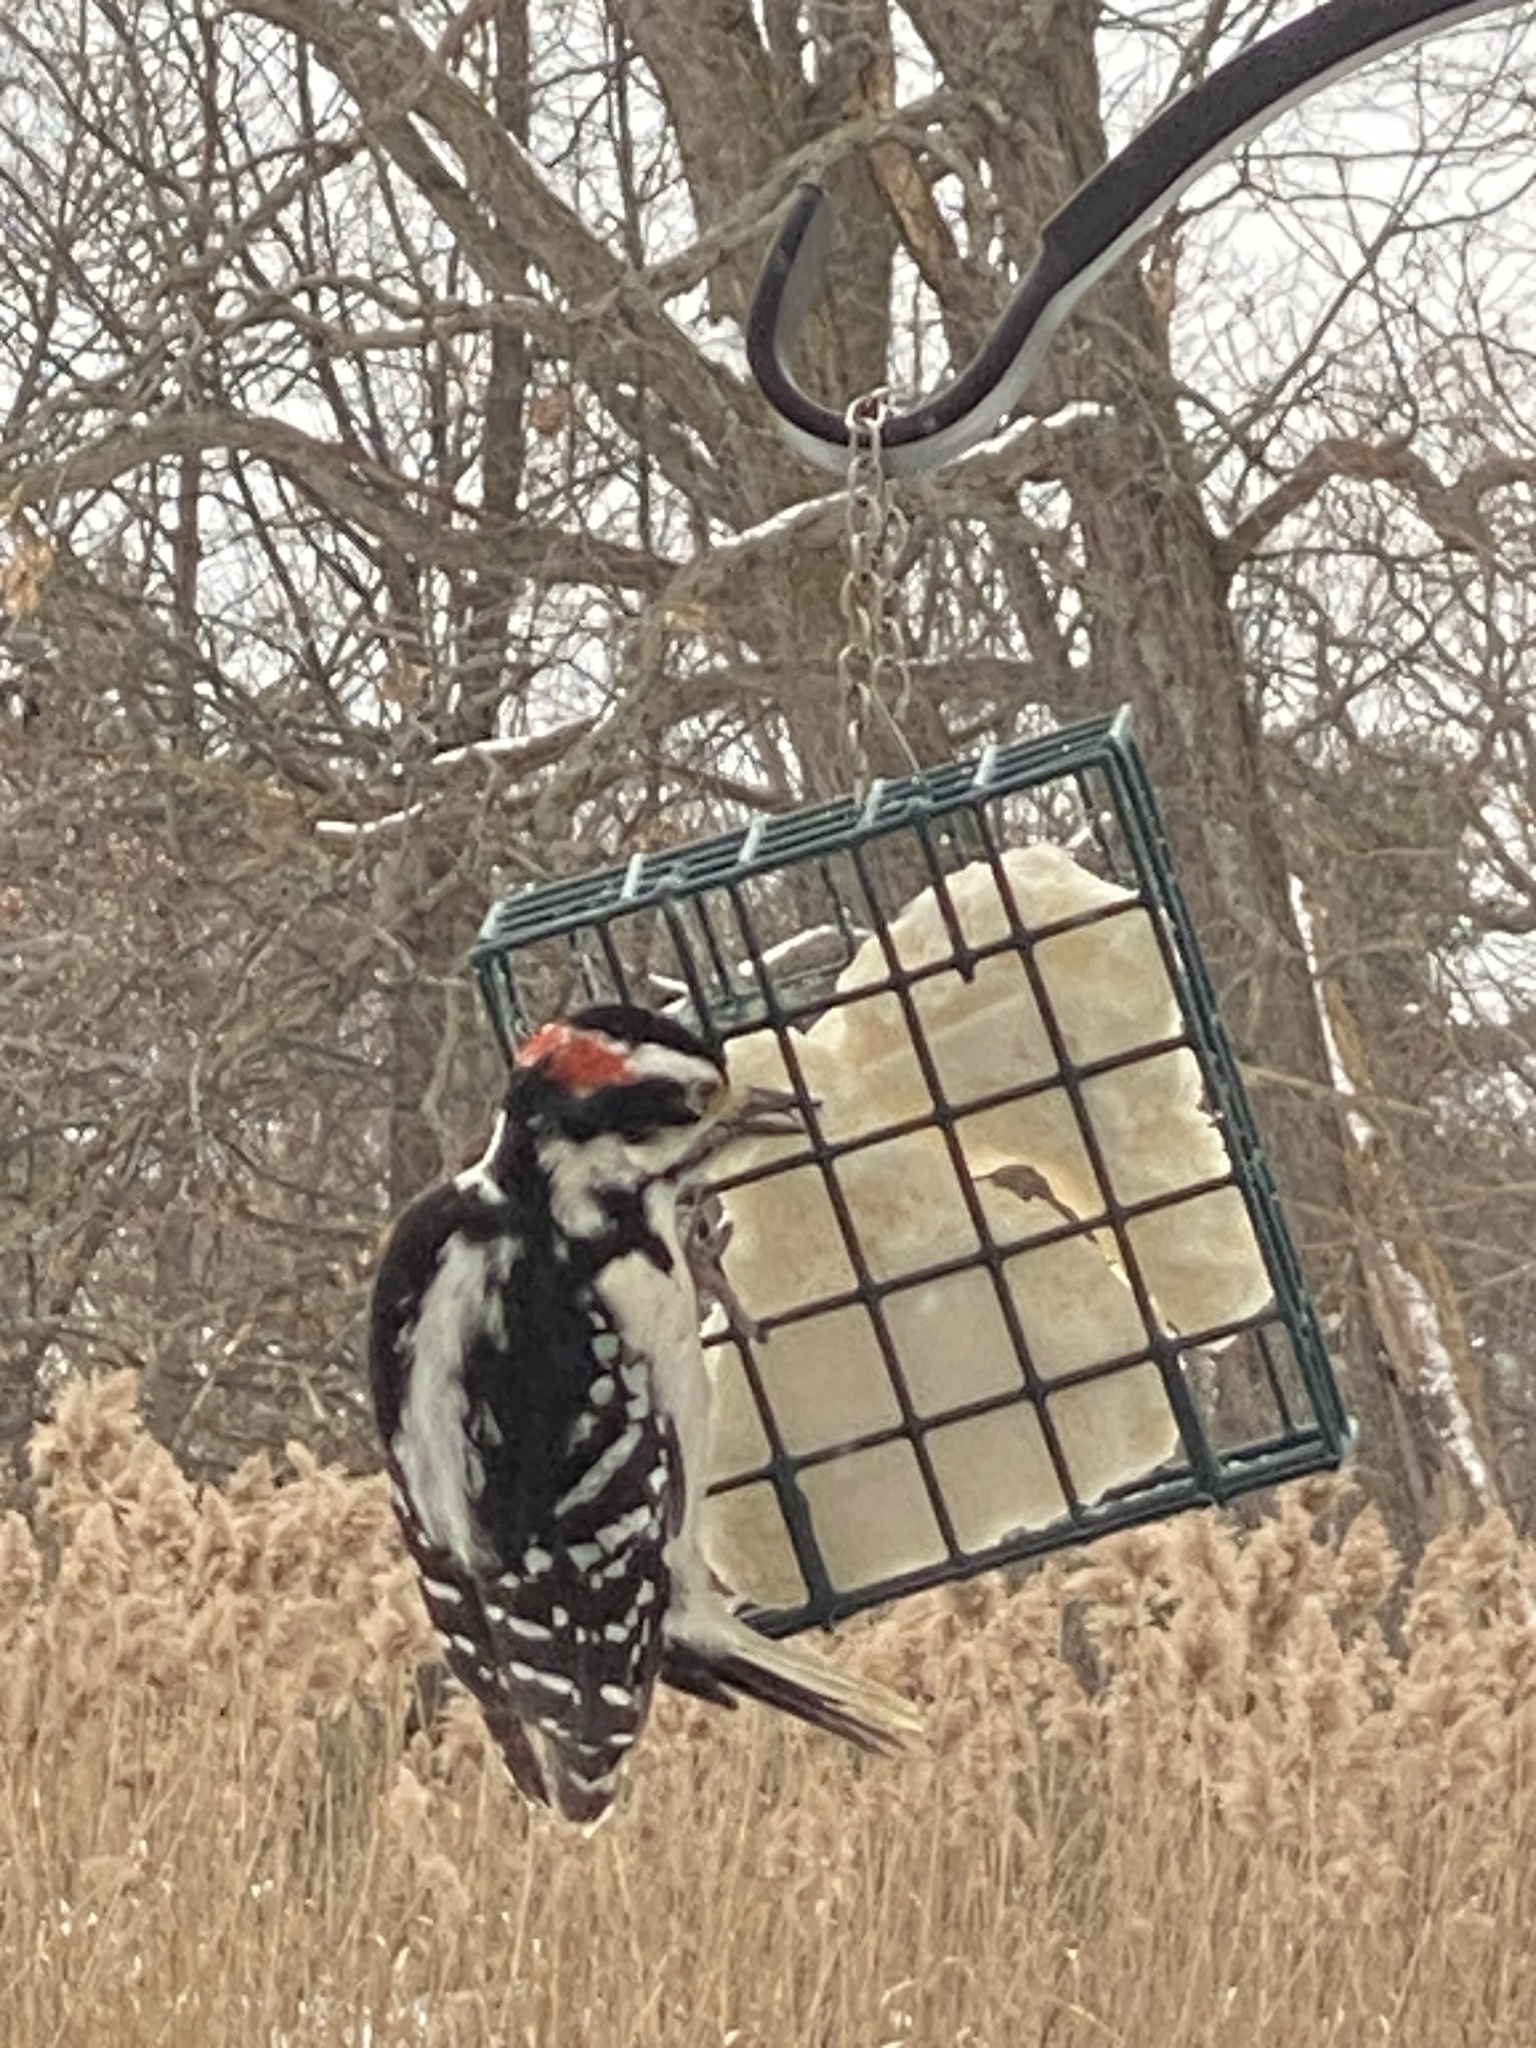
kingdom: Animalia
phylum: Chordata
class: Aves
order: Piciformes
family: Picidae
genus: Leuconotopicus
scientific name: Leuconotopicus villosus
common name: Hairy woodpecker
